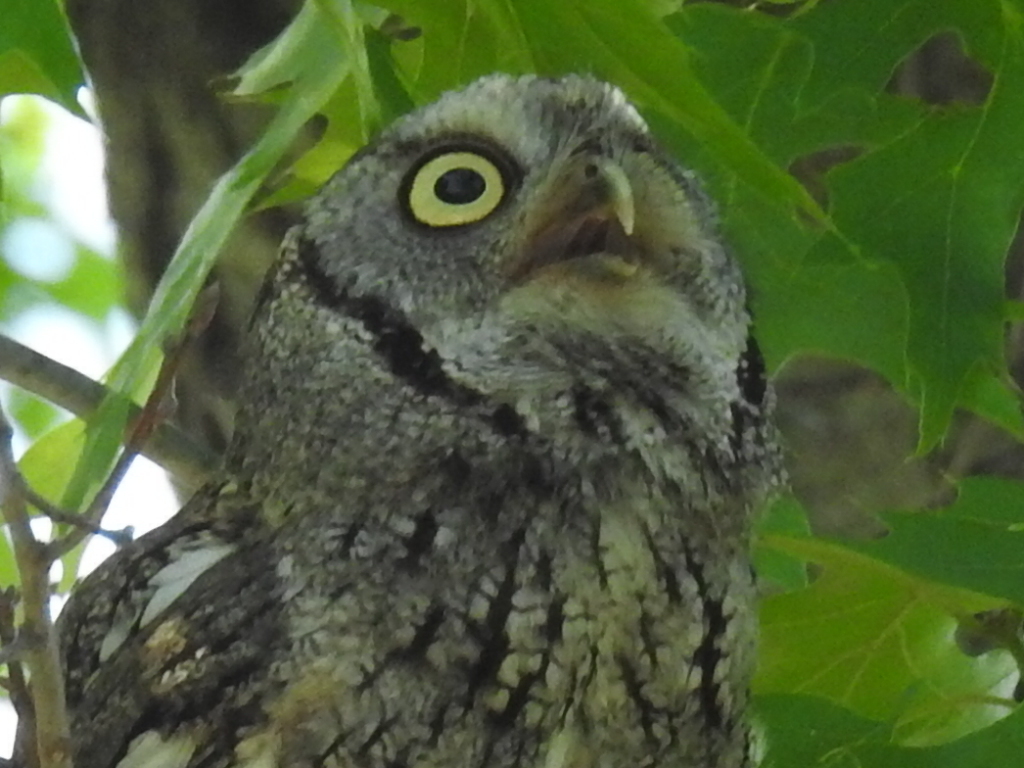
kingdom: Animalia
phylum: Chordata
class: Aves
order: Strigiformes
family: Strigidae
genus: Megascops
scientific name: Megascops asio
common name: Eastern screech-owl
